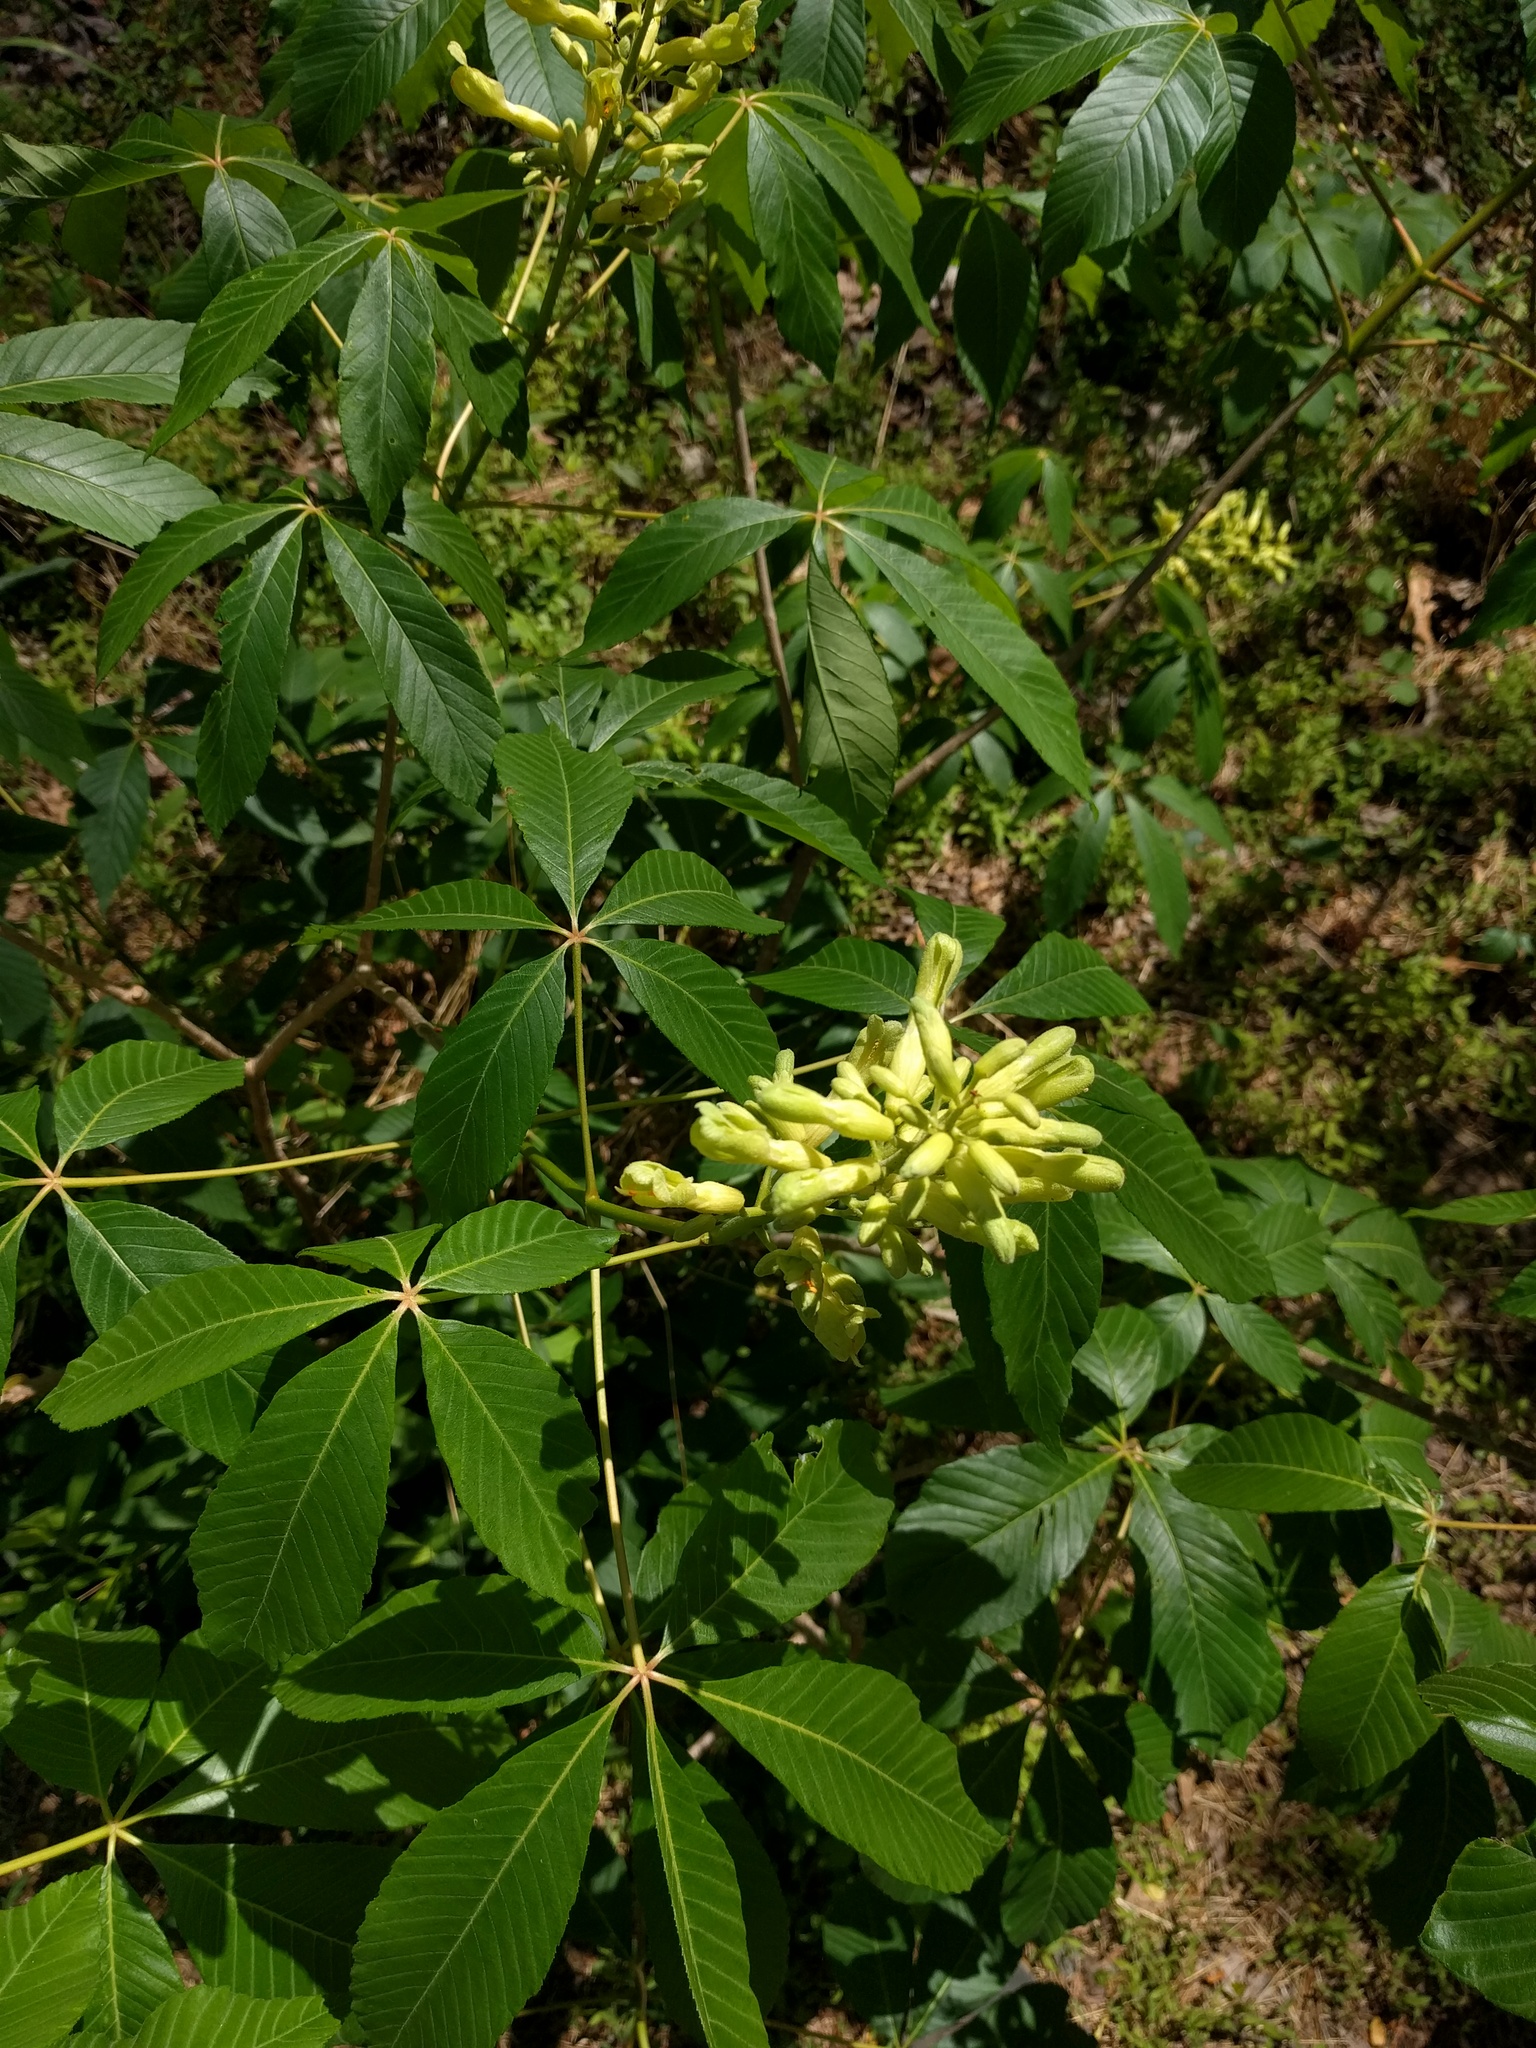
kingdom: Plantae
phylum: Tracheophyta
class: Magnoliopsida
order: Sapindales
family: Sapindaceae
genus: Aesculus
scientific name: Aesculus sylvatica
